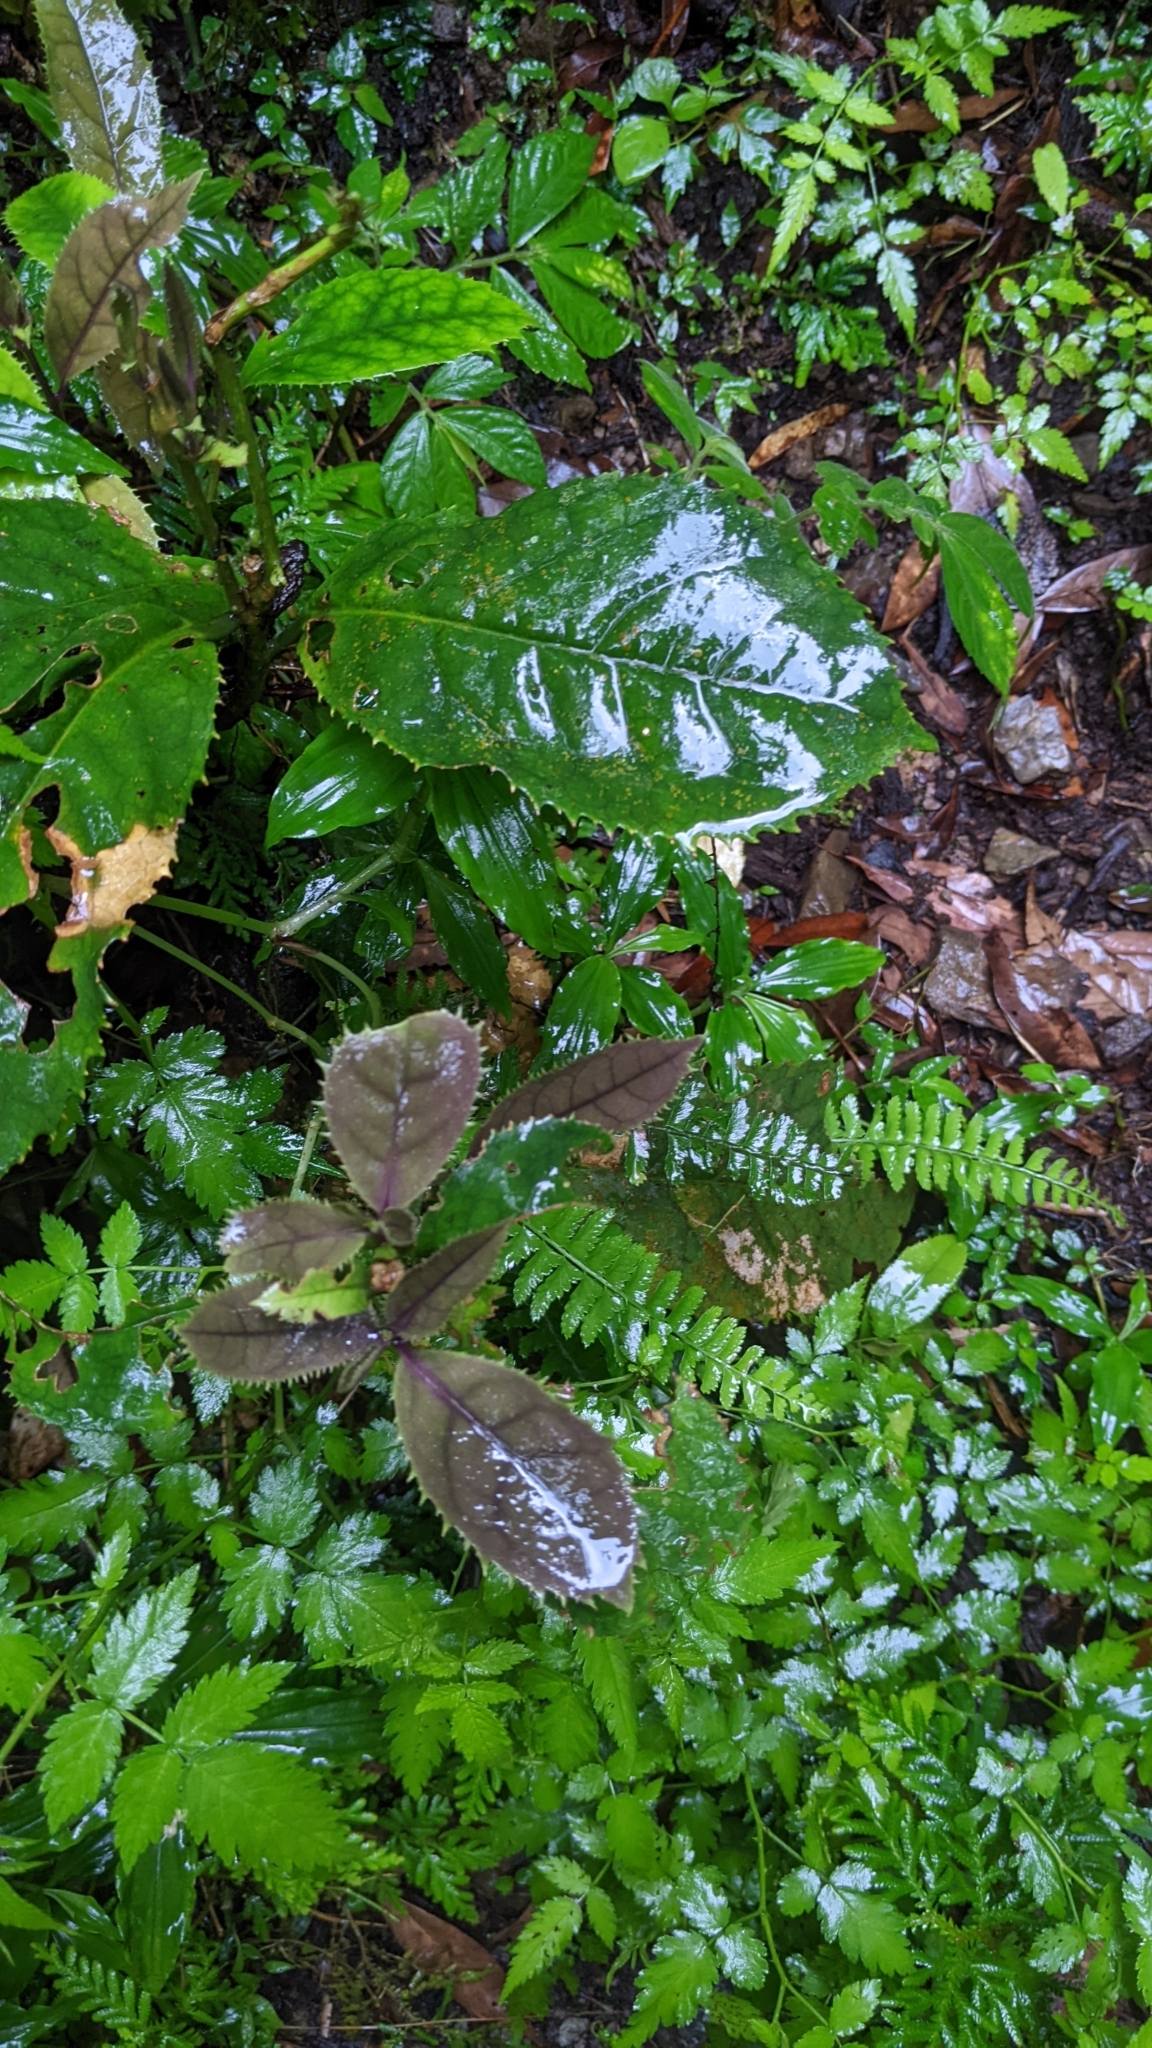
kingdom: Plantae
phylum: Tracheophyta
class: Magnoliopsida
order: Ericales
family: Symplocaceae
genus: Symplocos
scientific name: Symplocos acuminata
